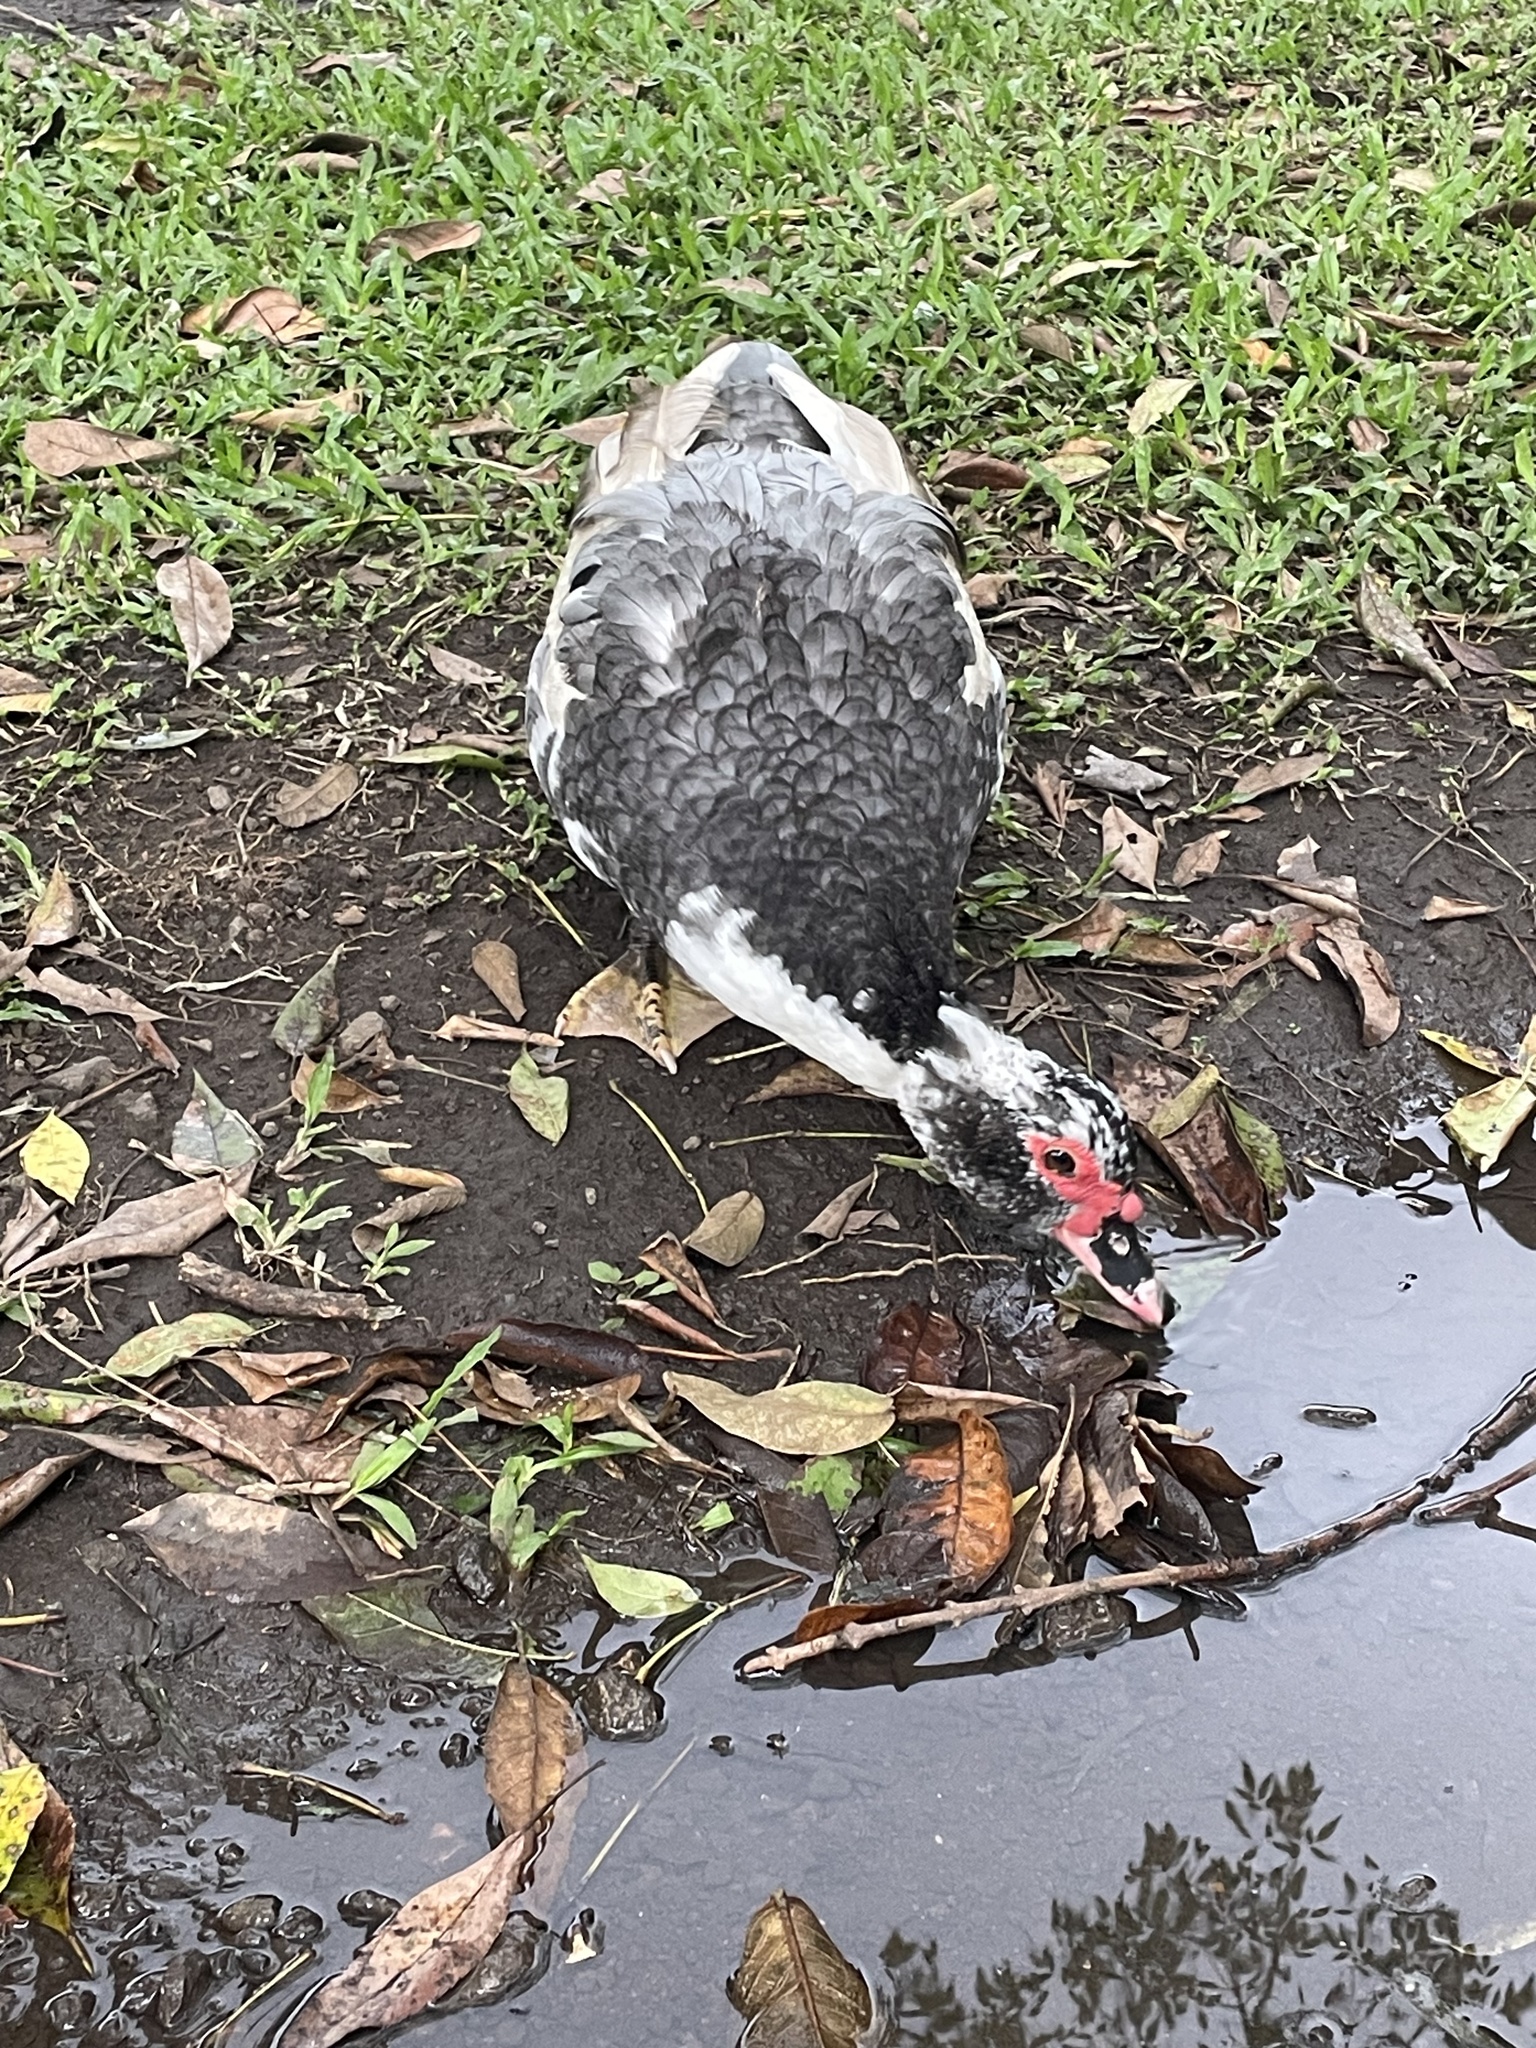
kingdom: Animalia
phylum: Chordata
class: Aves
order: Anseriformes
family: Anatidae
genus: Cairina
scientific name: Cairina moschata
